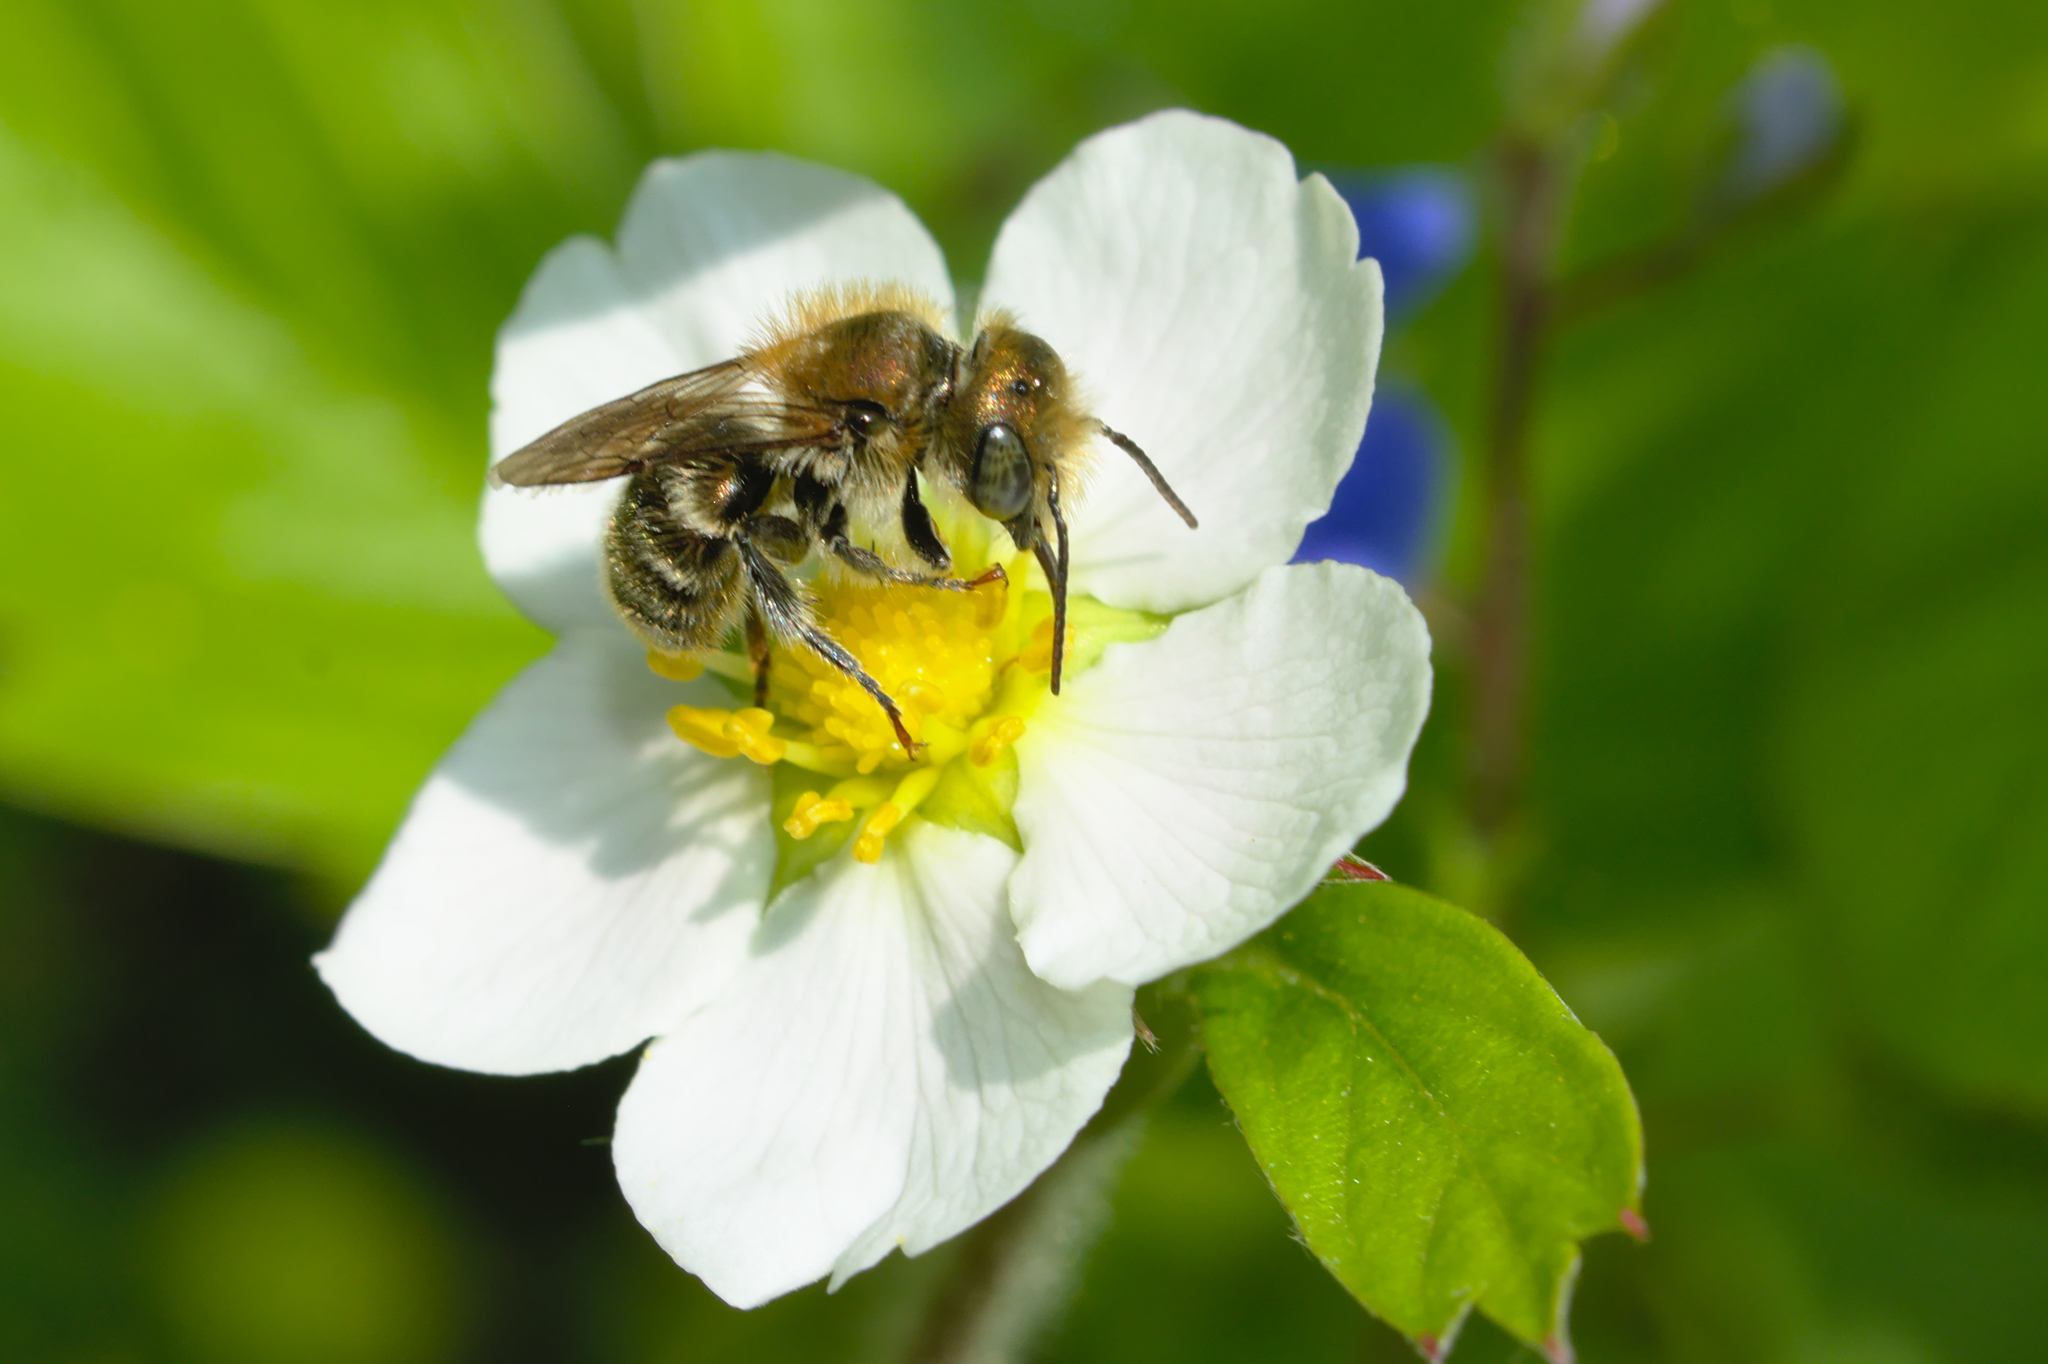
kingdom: Animalia
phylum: Arthropoda
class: Insecta
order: Hymenoptera
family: Megachilidae
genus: Osmia
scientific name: Osmia caerulescens
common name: Blue mason bee
